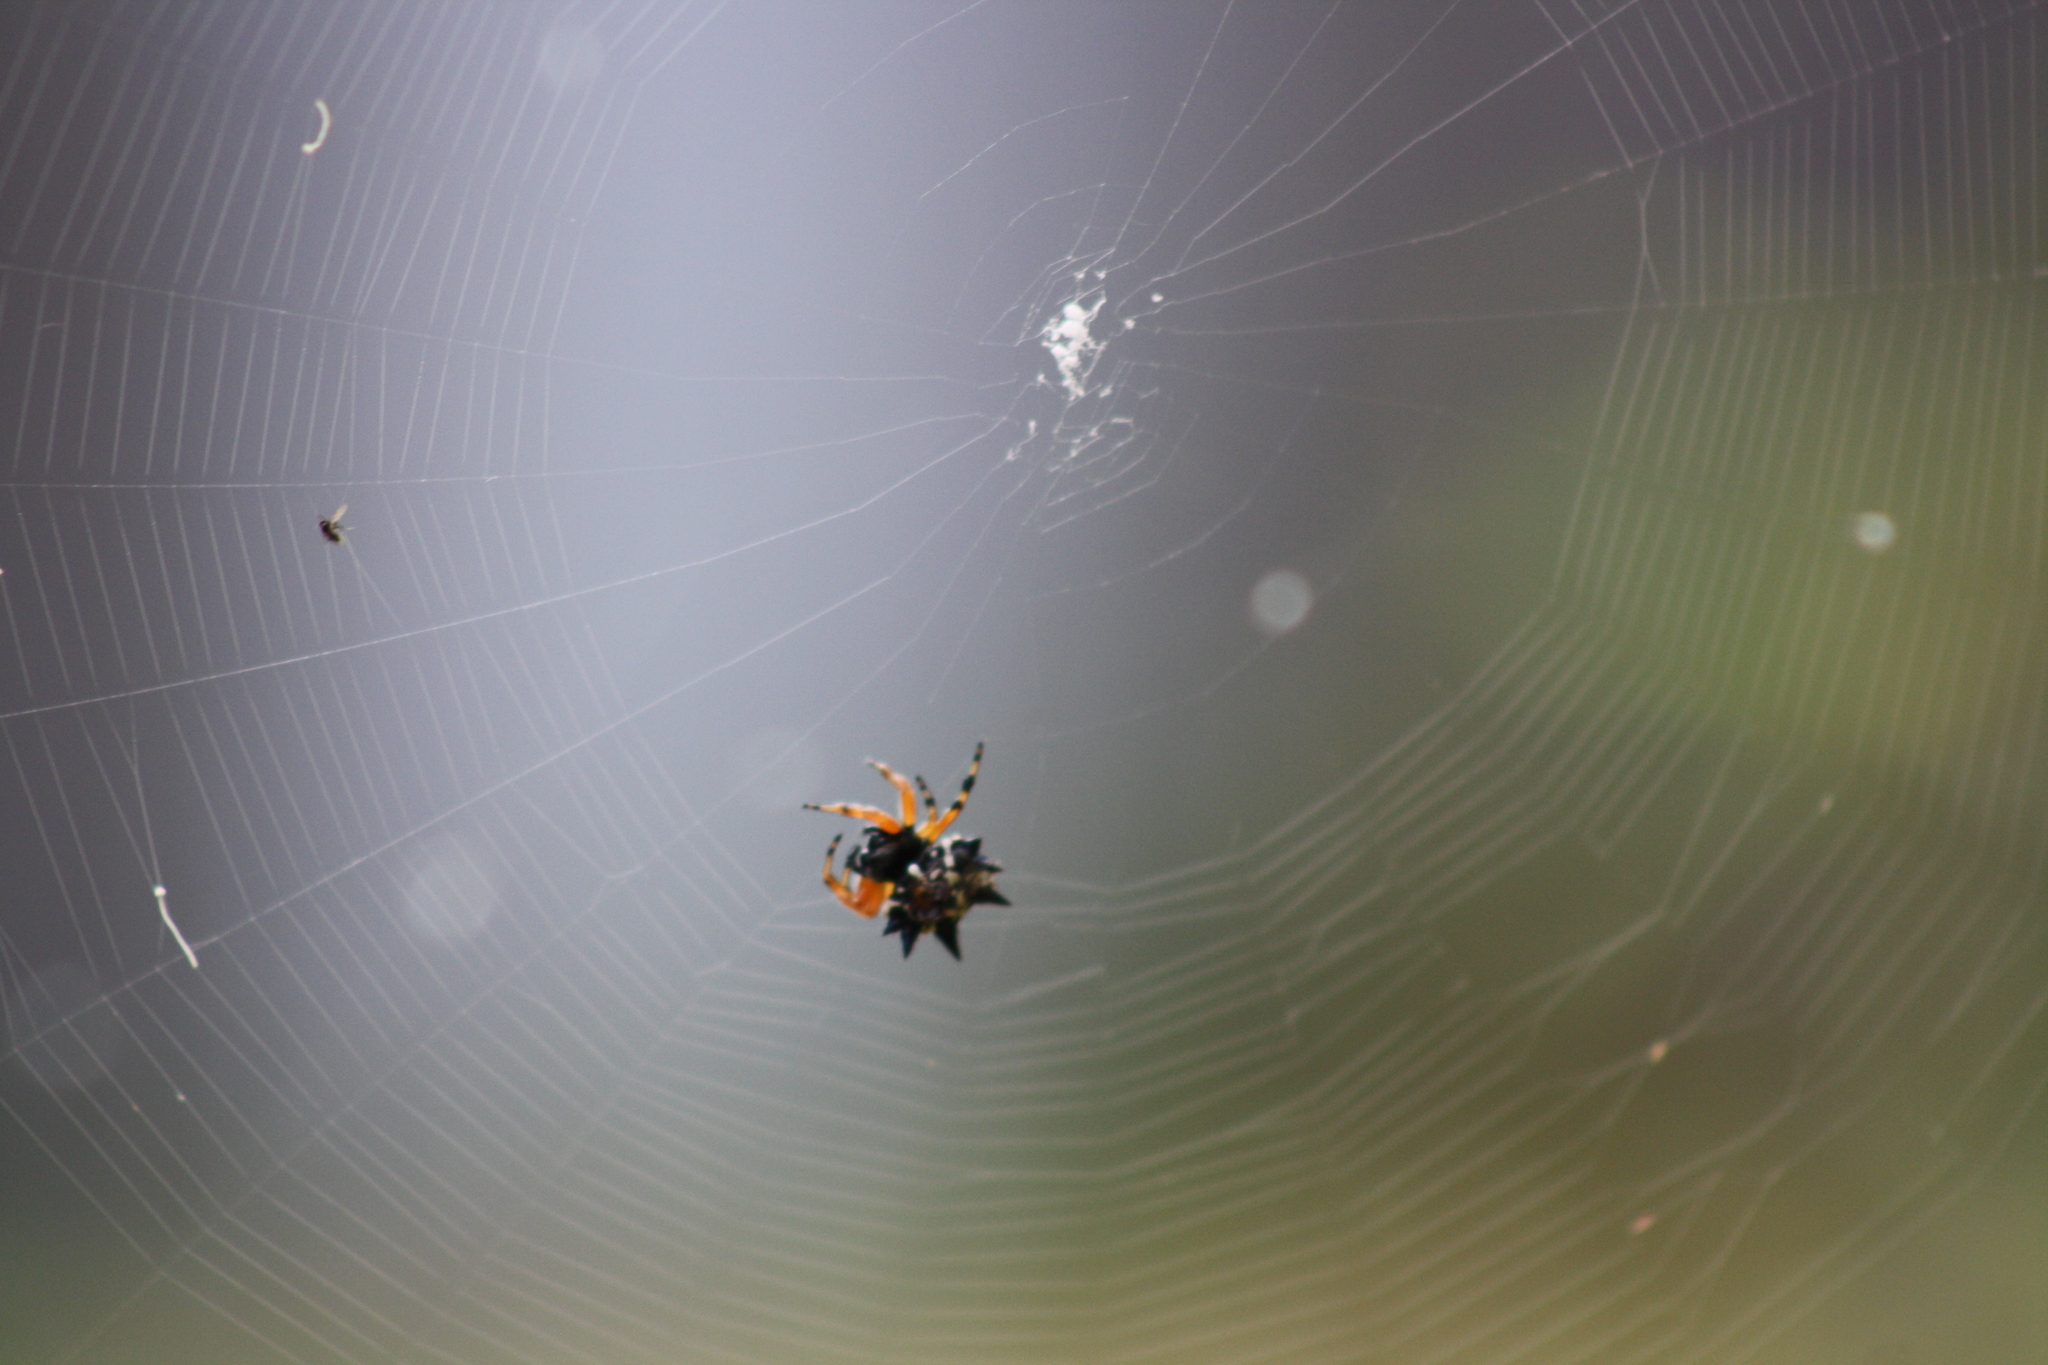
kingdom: Animalia
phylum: Arthropoda
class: Arachnida
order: Araneae
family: Araneidae
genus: Austracantha
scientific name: Austracantha minax
